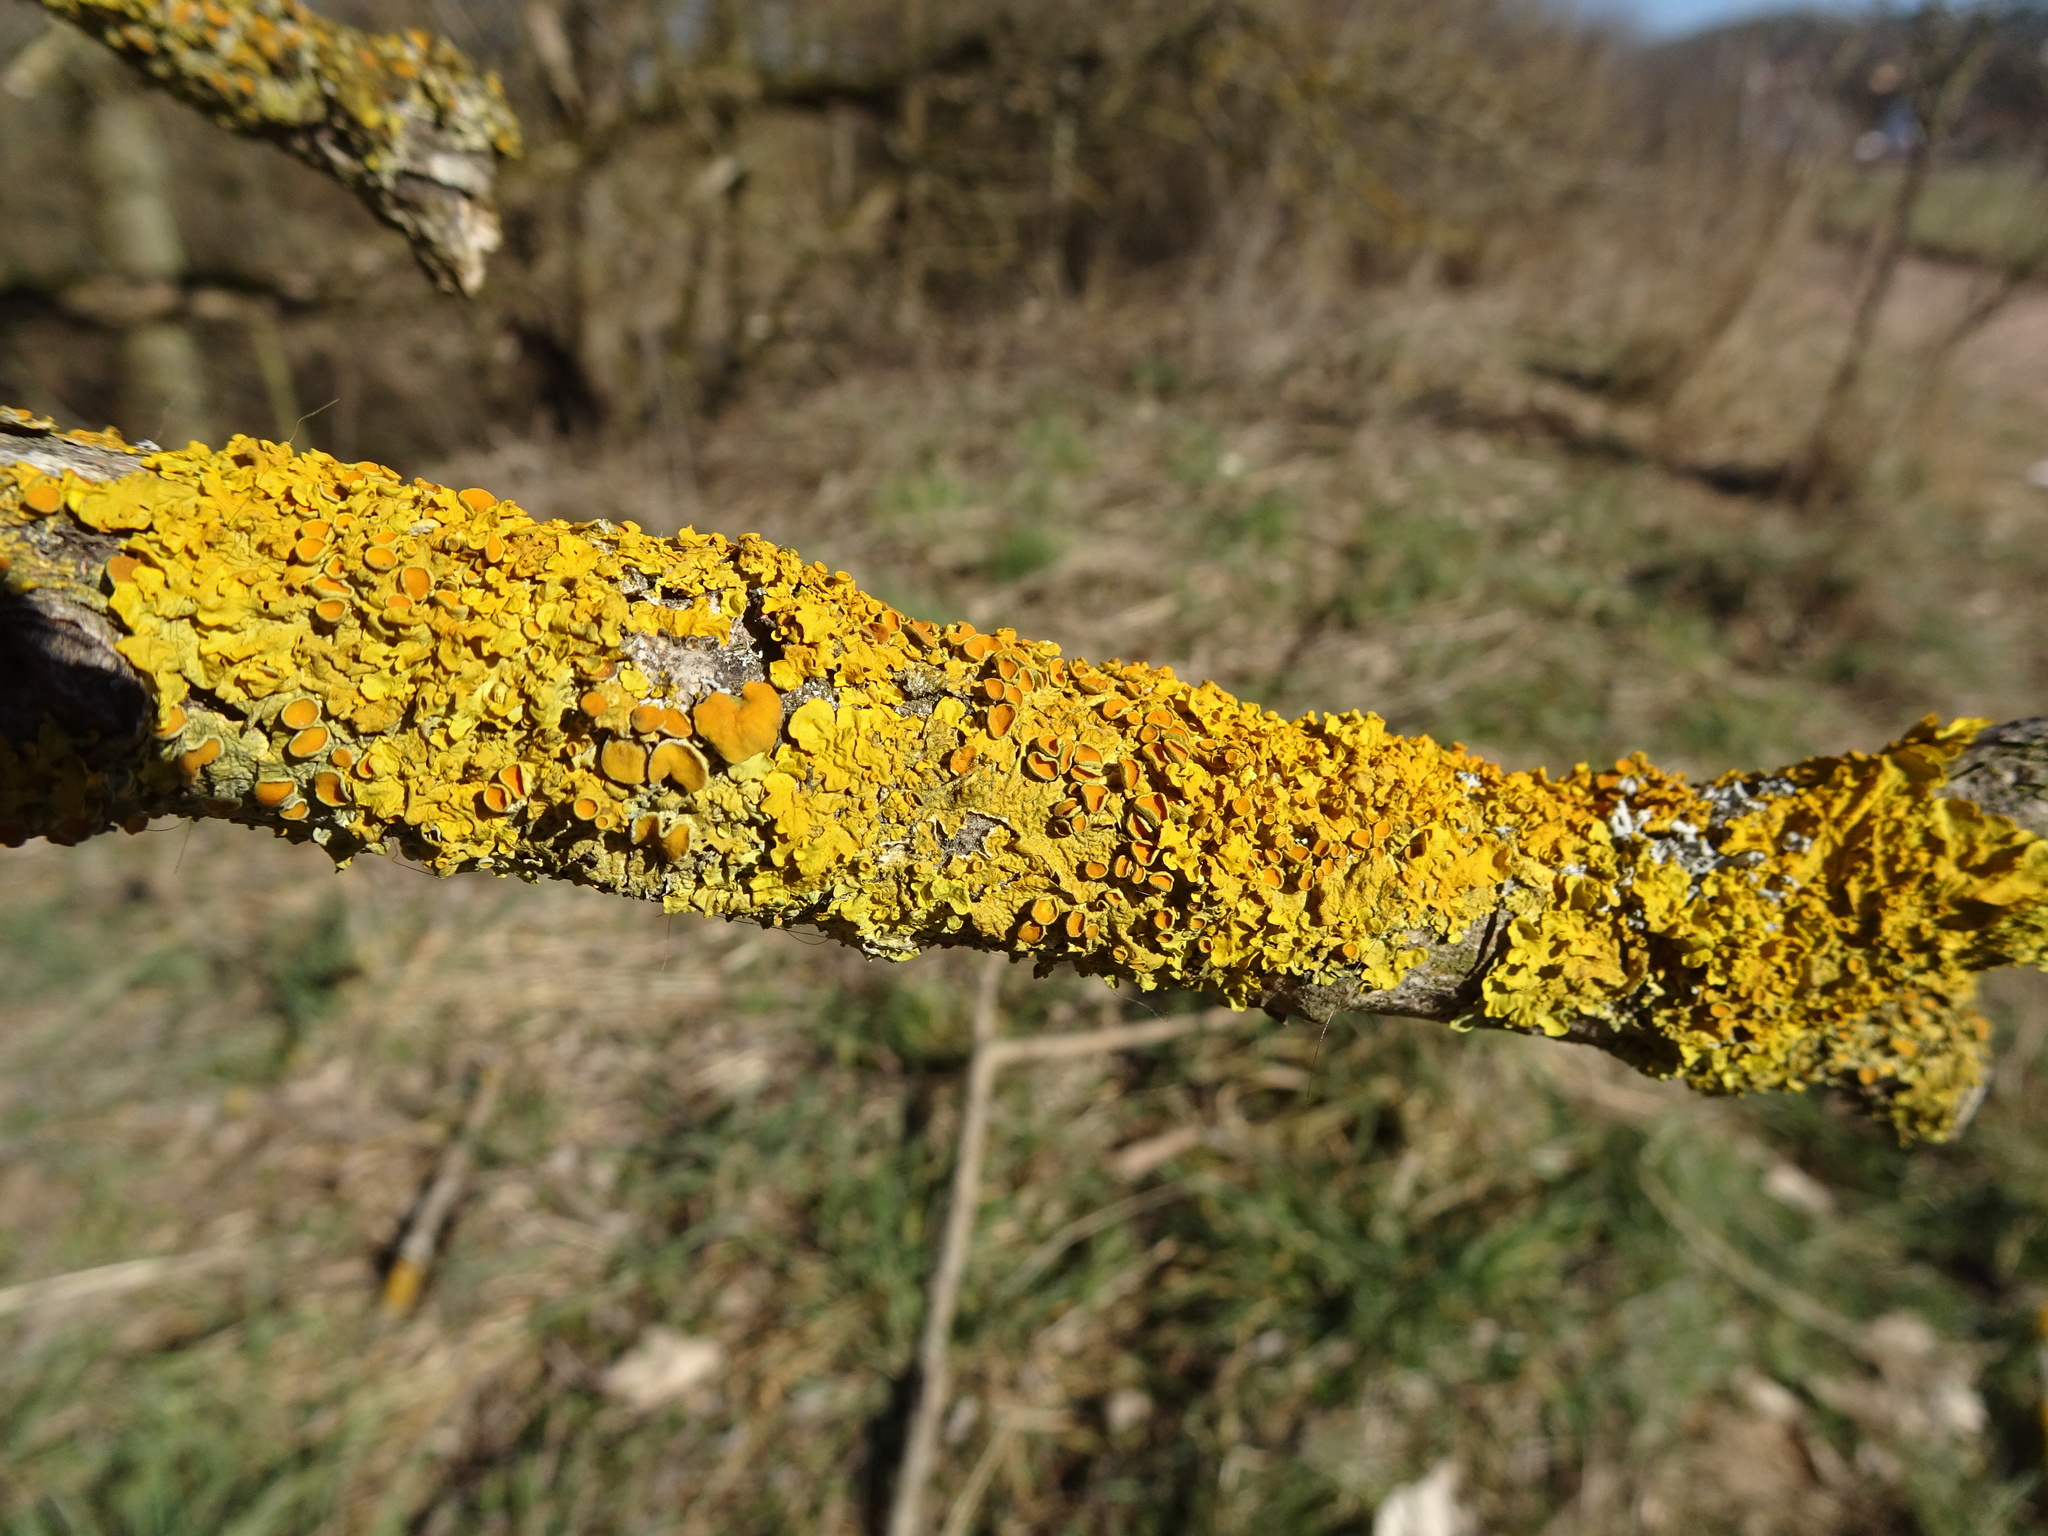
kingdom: Fungi
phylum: Ascomycota
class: Lecanoromycetes
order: Teloschistales
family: Teloschistaceae
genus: Xanthoria
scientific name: Xanthoria parietina
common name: Common orange lichen
